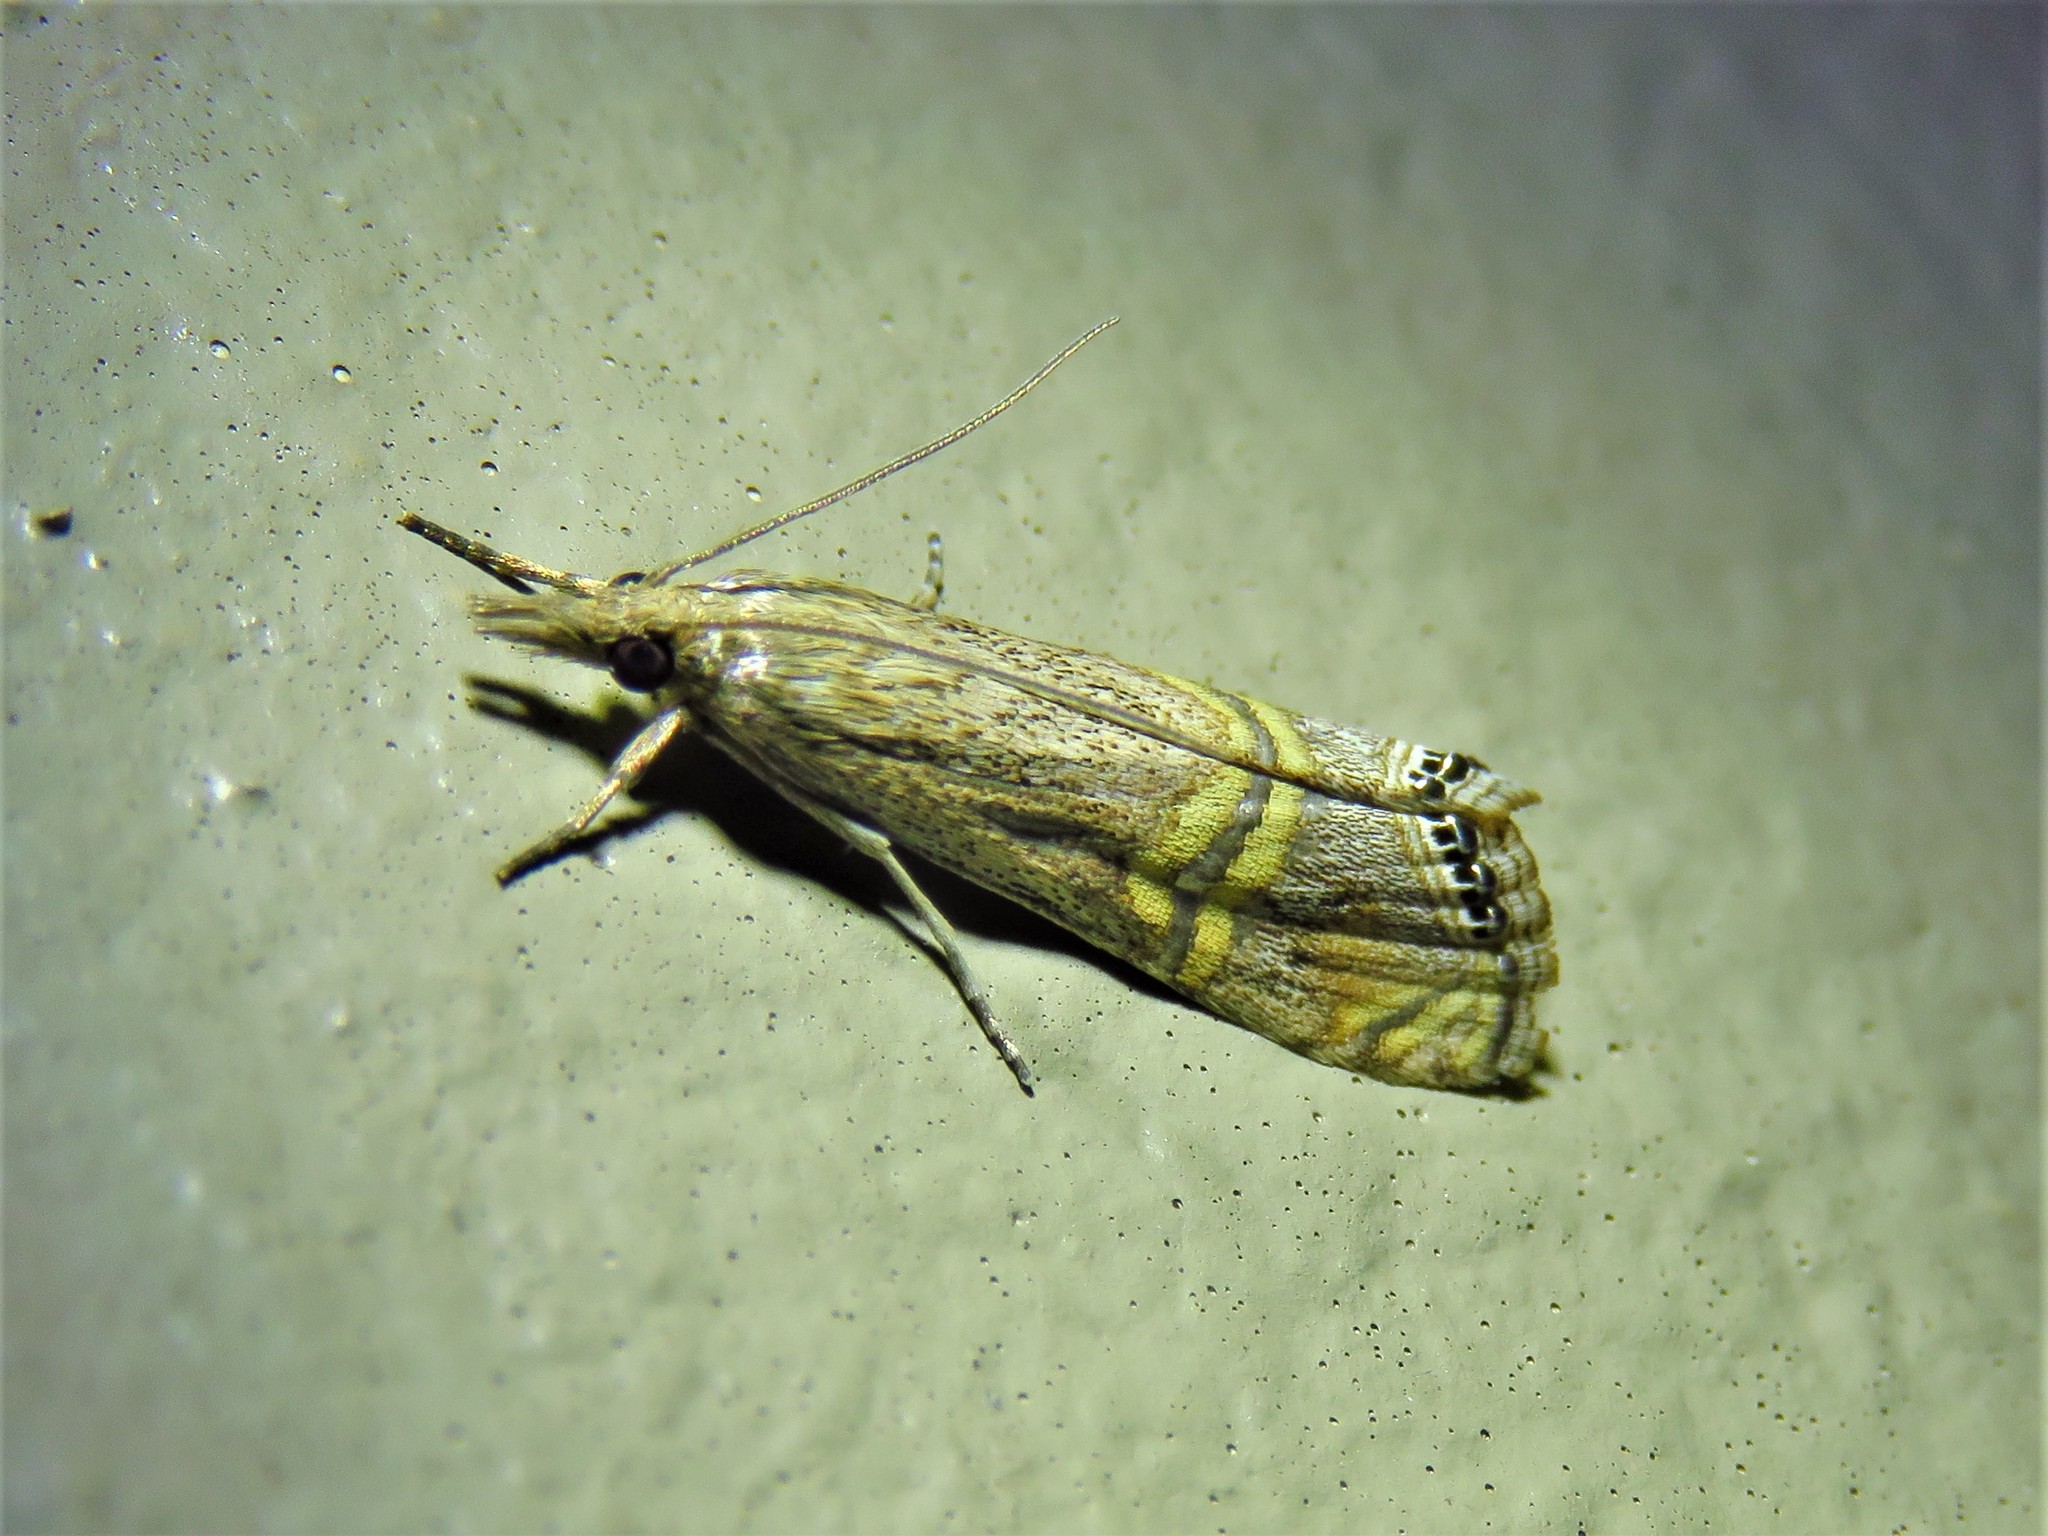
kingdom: Animalia
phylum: Arthropoda
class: Insecta
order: Lepidoptera
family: Crambidae
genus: Euchromius
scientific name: Euchromius ocellea
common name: Necklace veneer moth
